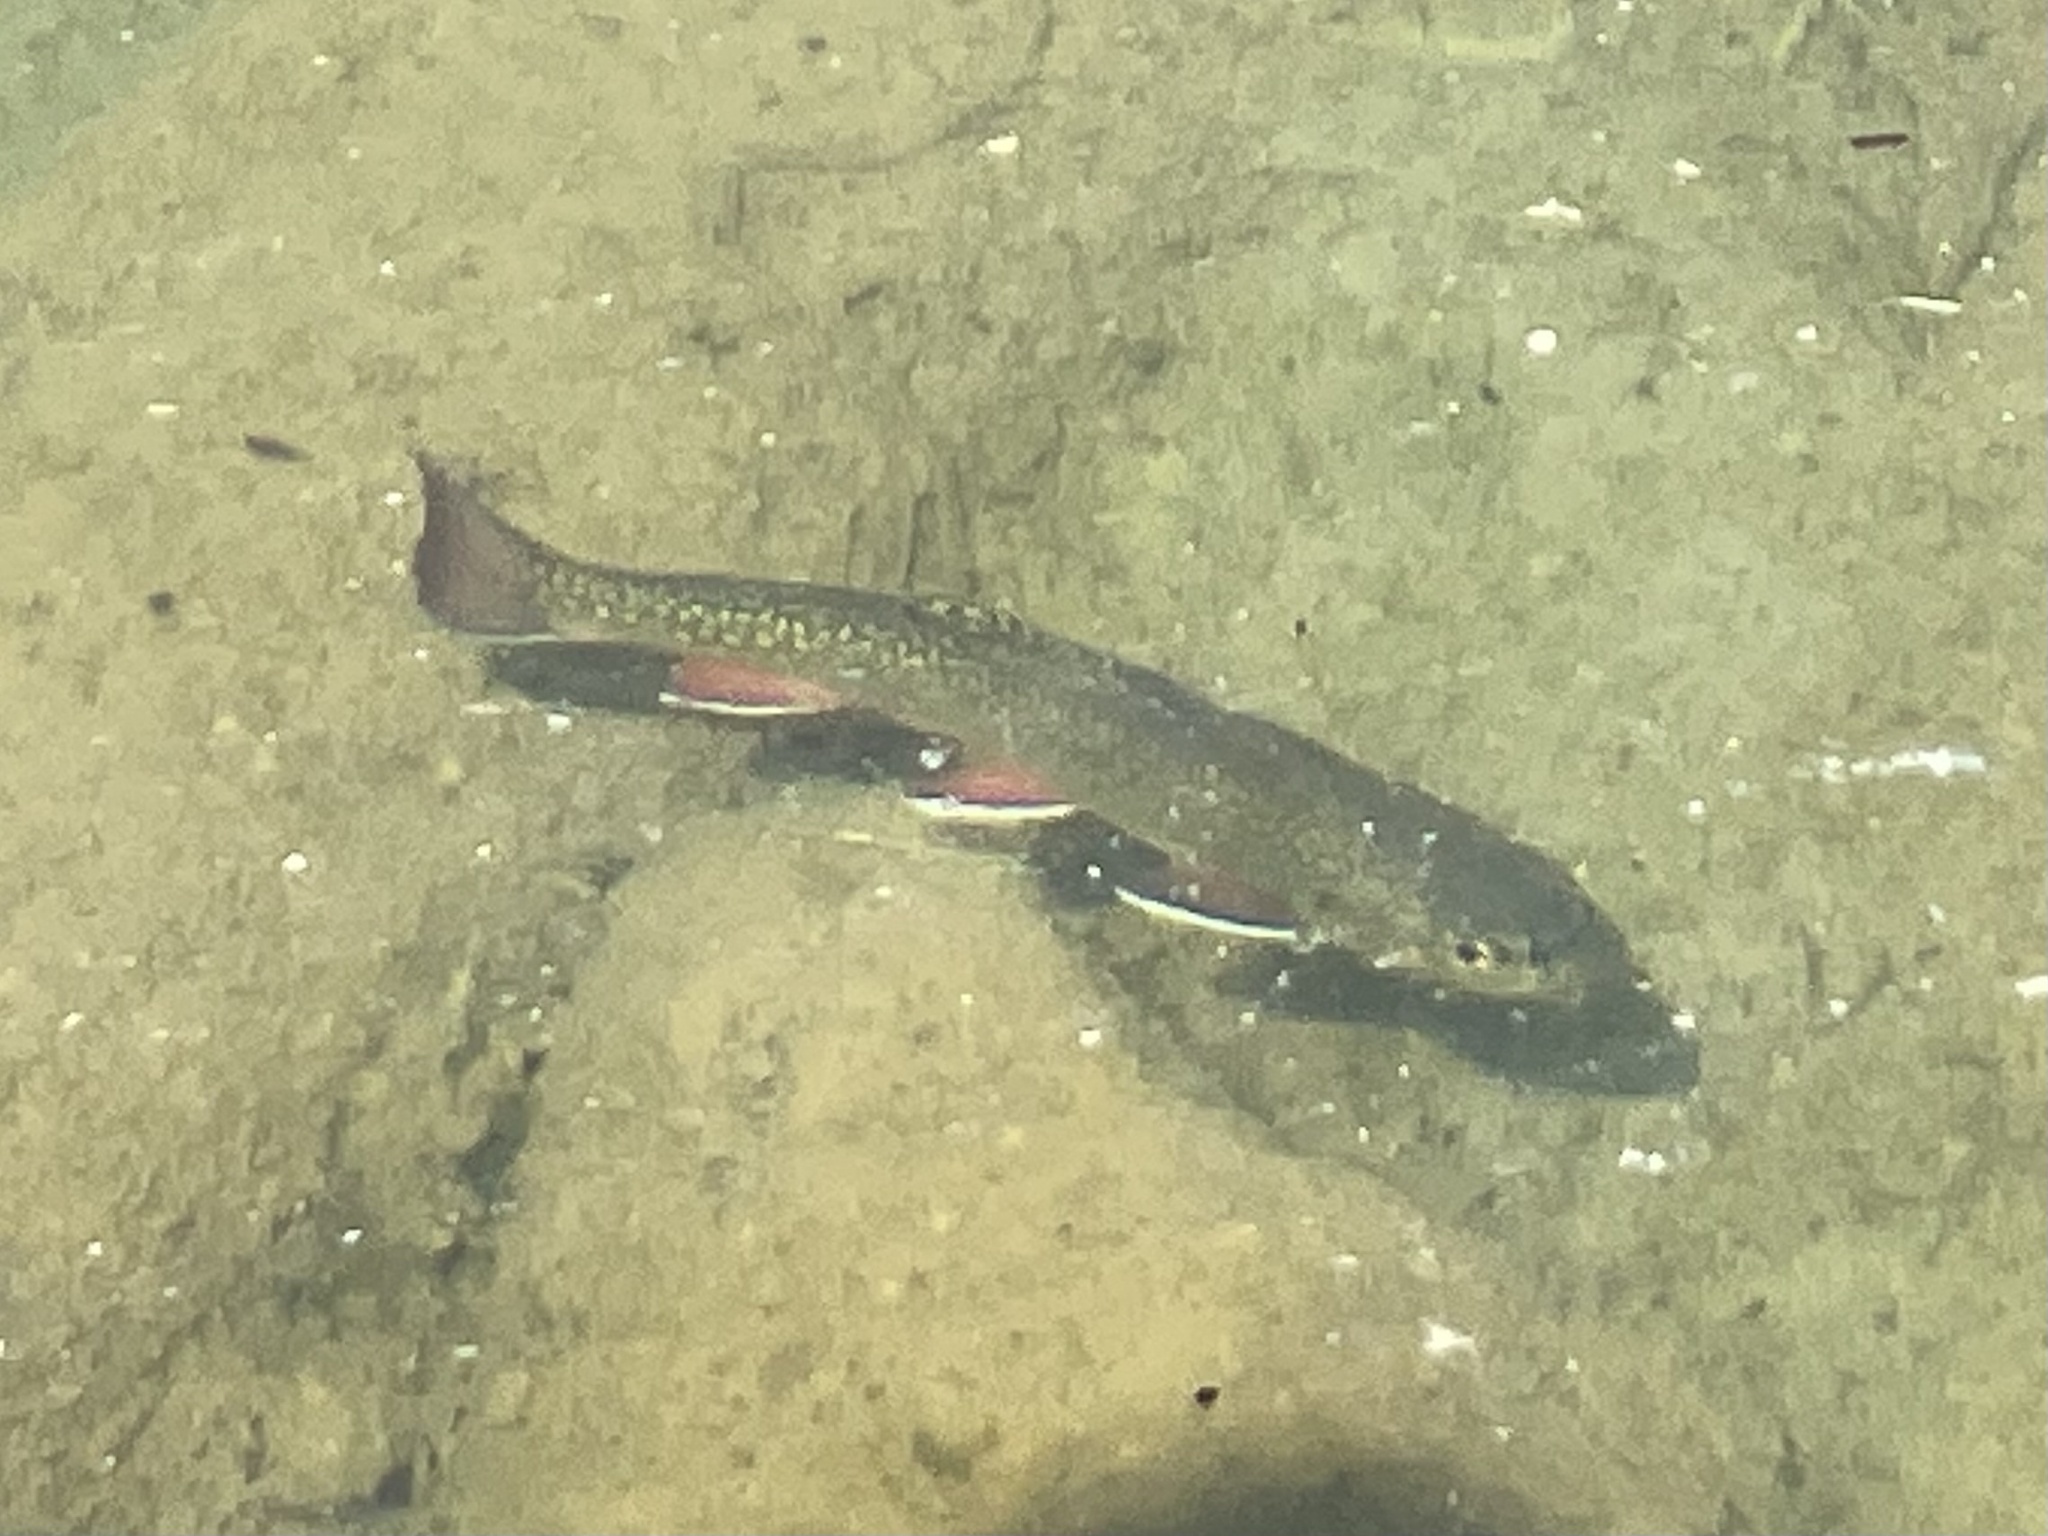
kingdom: Animalia
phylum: Chordata
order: Salmoniformes
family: Salmonidae
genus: Salvelinus
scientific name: Salvelinus fontinalis
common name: Brook trout
